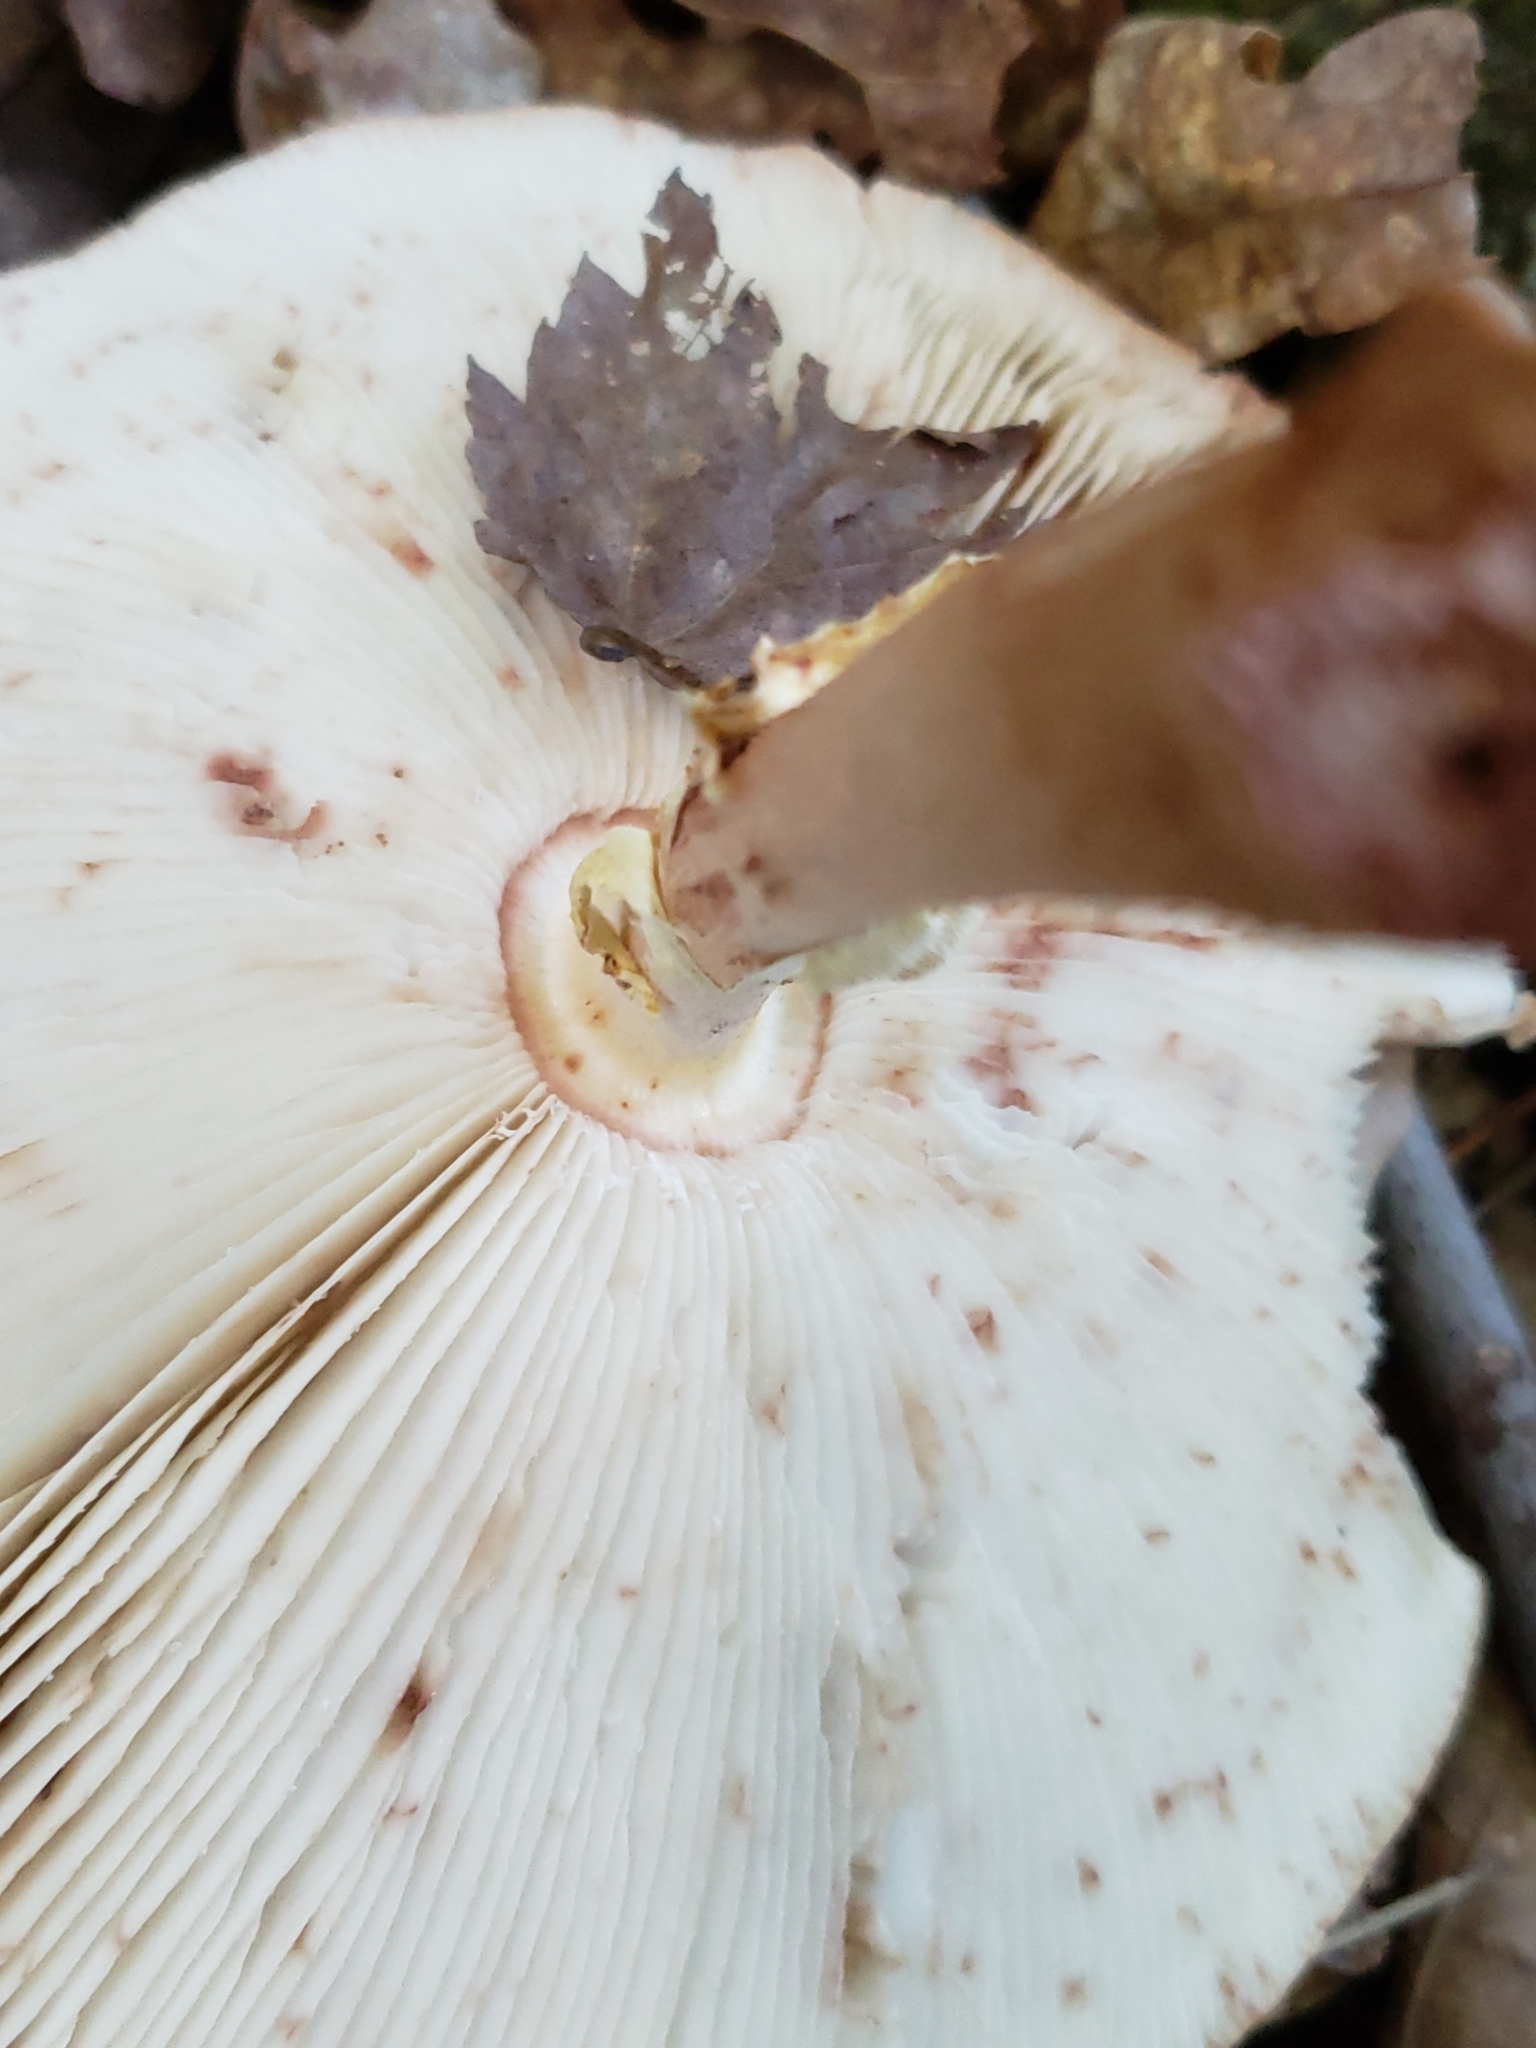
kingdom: Fungi
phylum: Basidiomycota
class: Agaricomycetes
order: Agaricales
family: Amanitaceae
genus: Amanita
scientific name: Amanita rubescens
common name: Blusher
